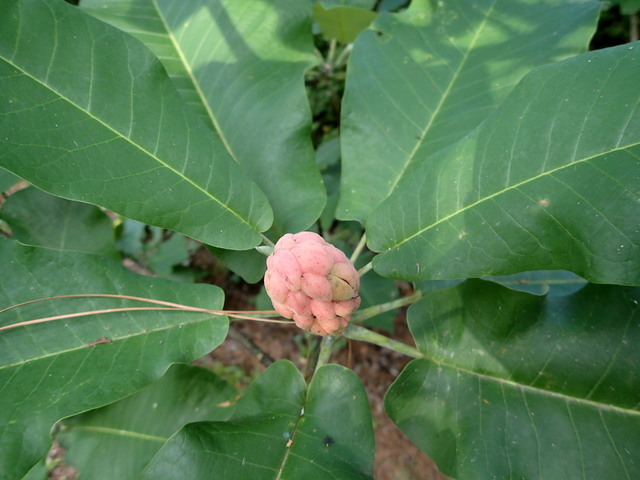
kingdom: Plantae
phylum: Tracheophyta
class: Magnoliopsida
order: Magnoliales
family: Magnoliaceae
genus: Magnolia
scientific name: Magnolia ashei
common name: Ashe's magnolia
